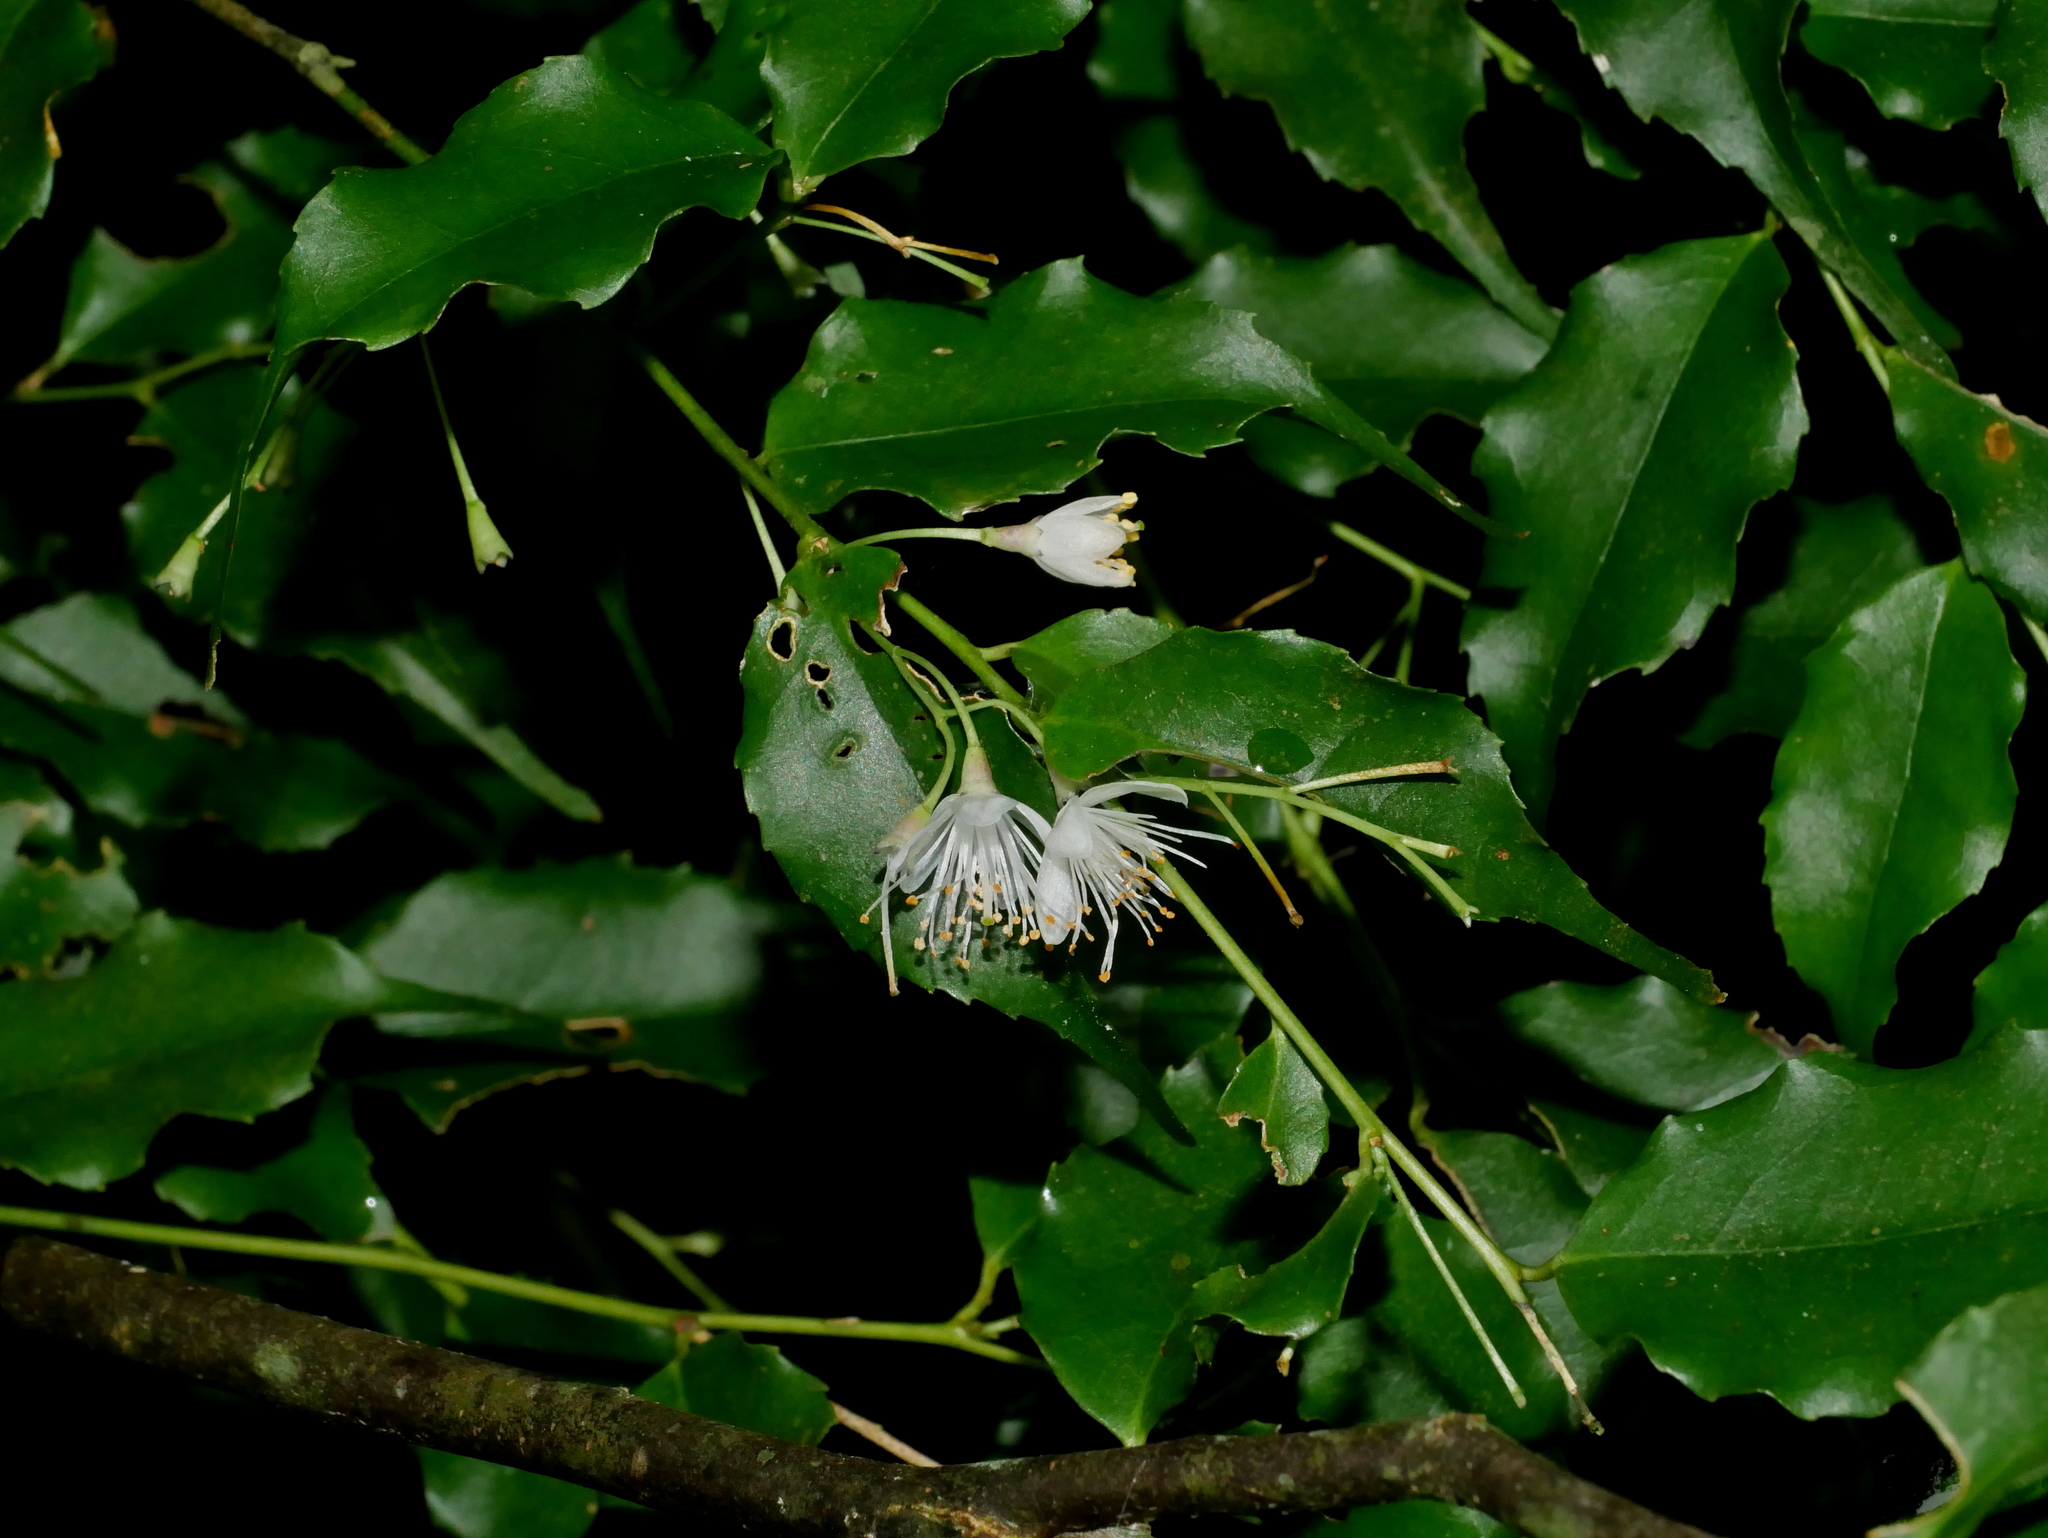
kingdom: Plantae
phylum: Tracheophyta
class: Magnoliopsida
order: Ericales
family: Symplocaceae
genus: Symplocos
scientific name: Symplocos sumuntia
